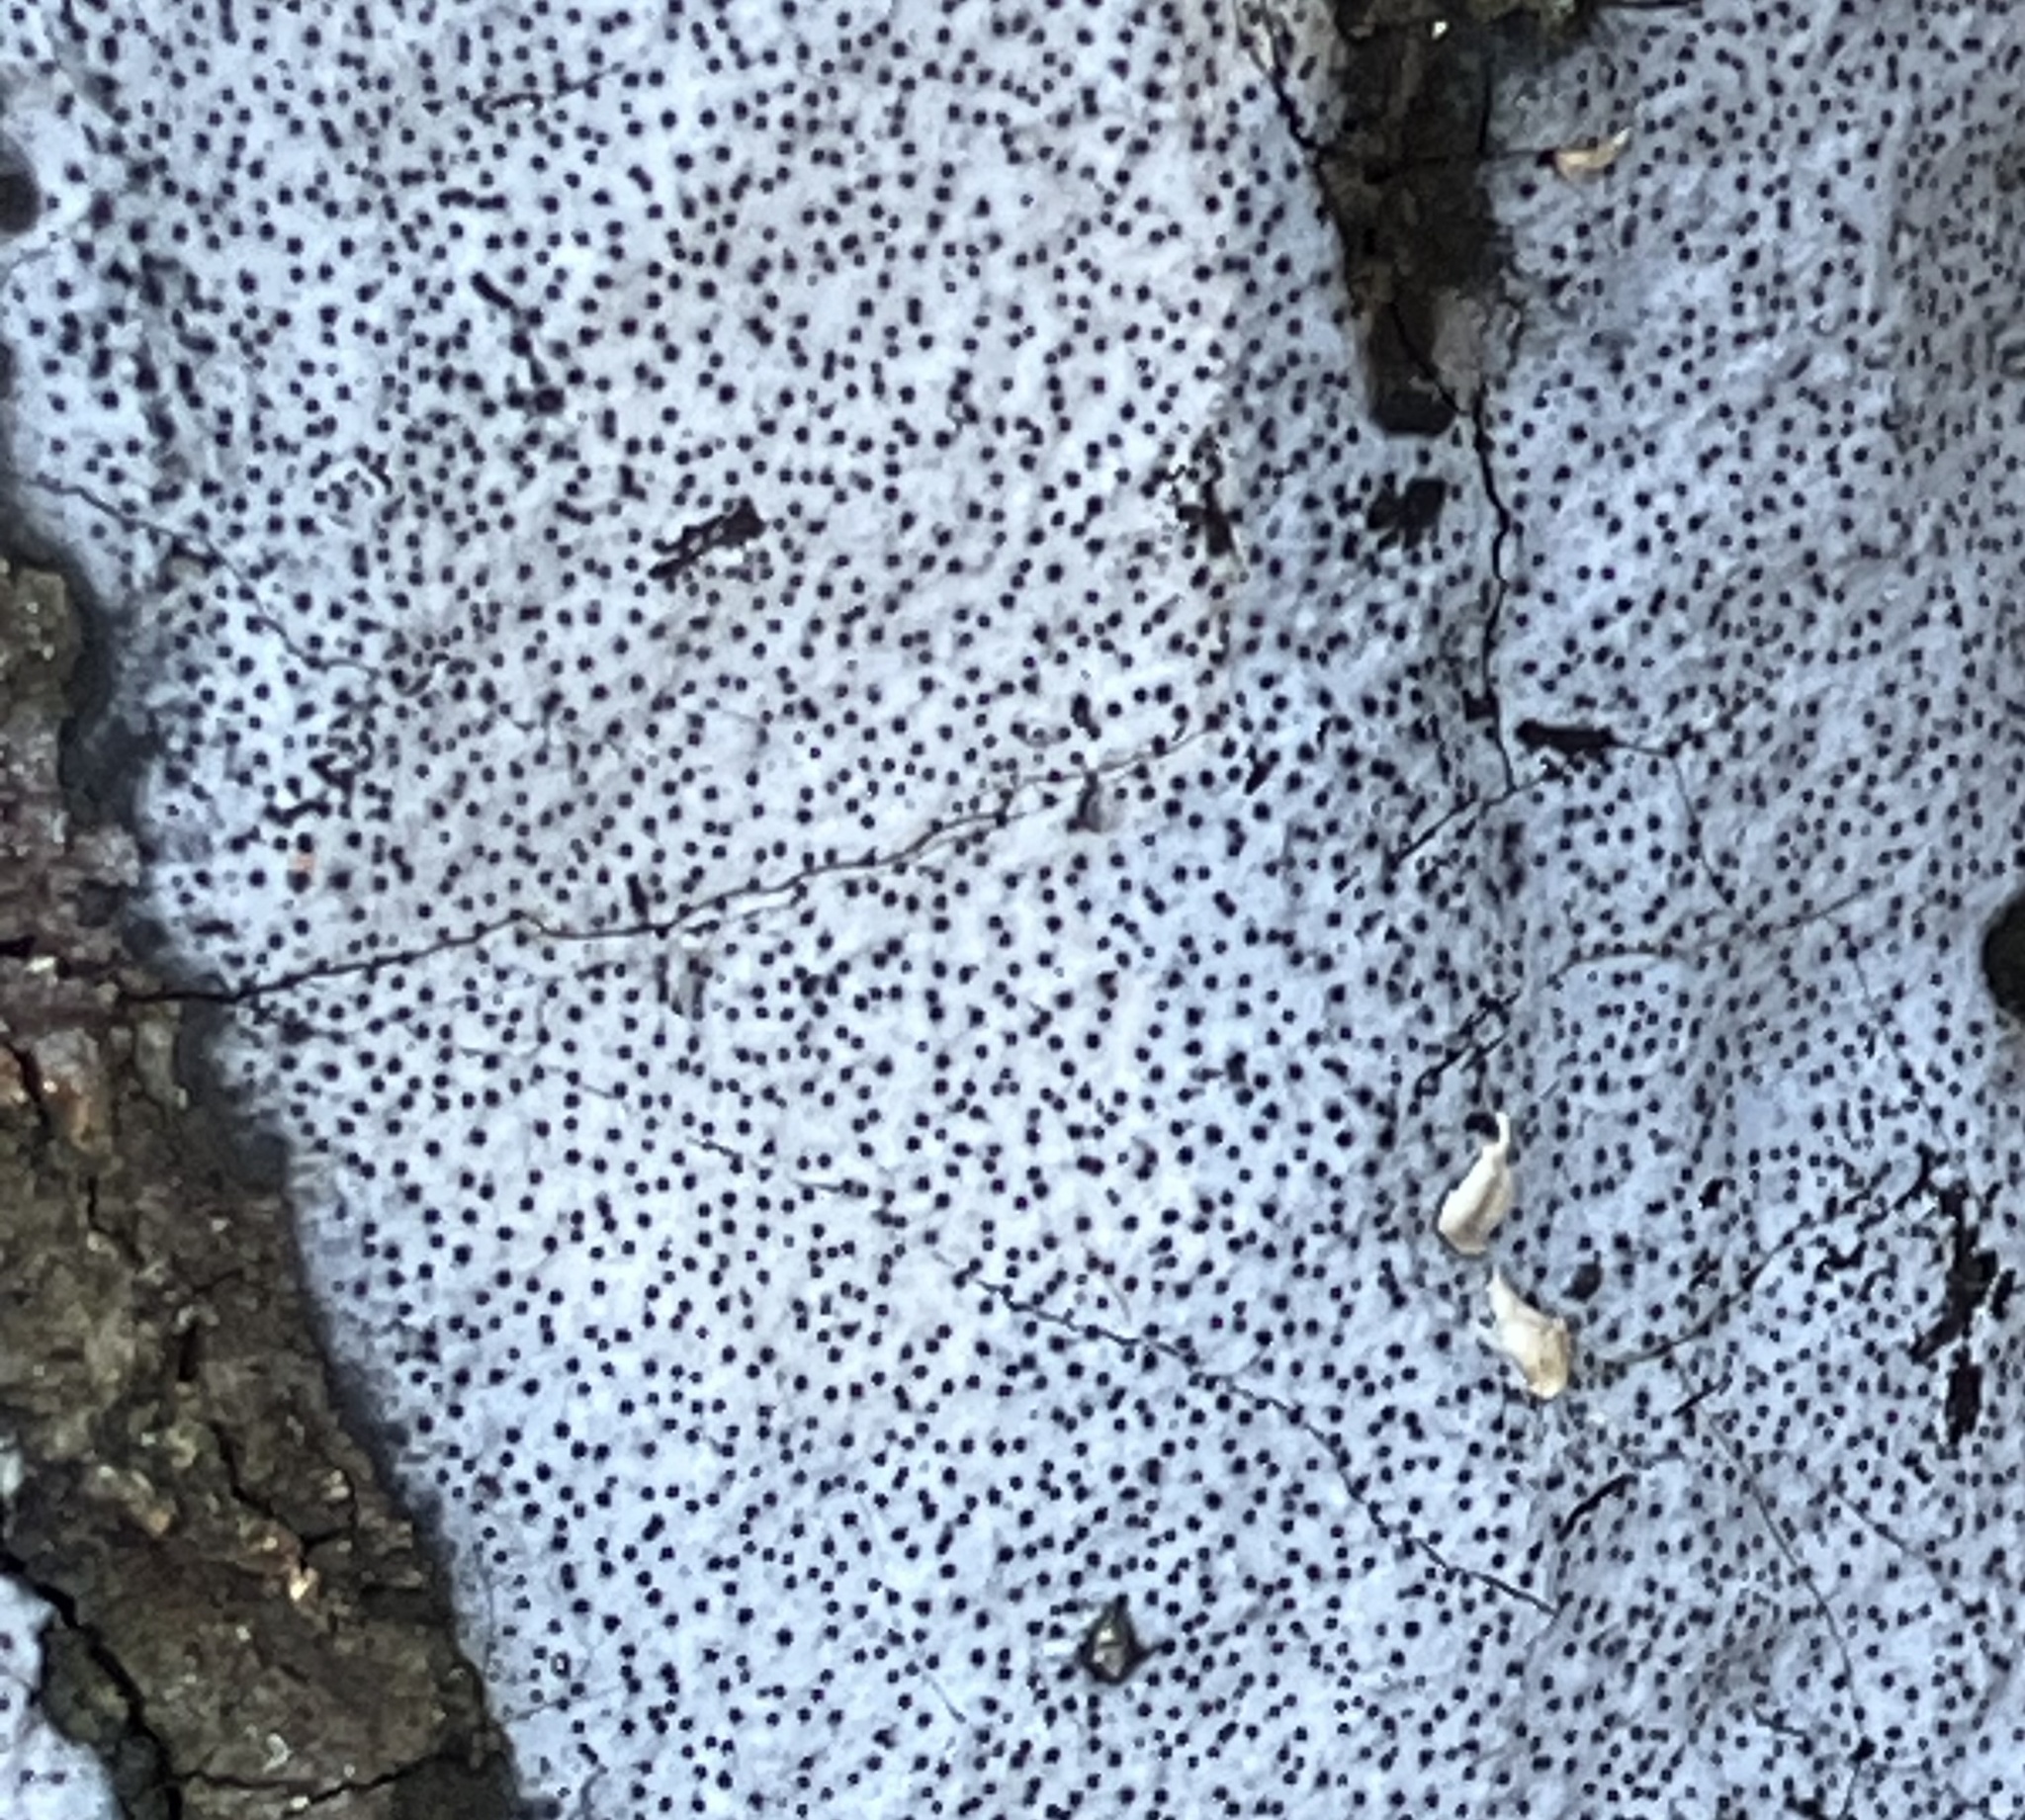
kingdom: Fungi
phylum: Ascomycota
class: Sordariomycetes
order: Xylariales
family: Graphostromataceae
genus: Biscogniauxia
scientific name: Biscogniauxia atropunctata
